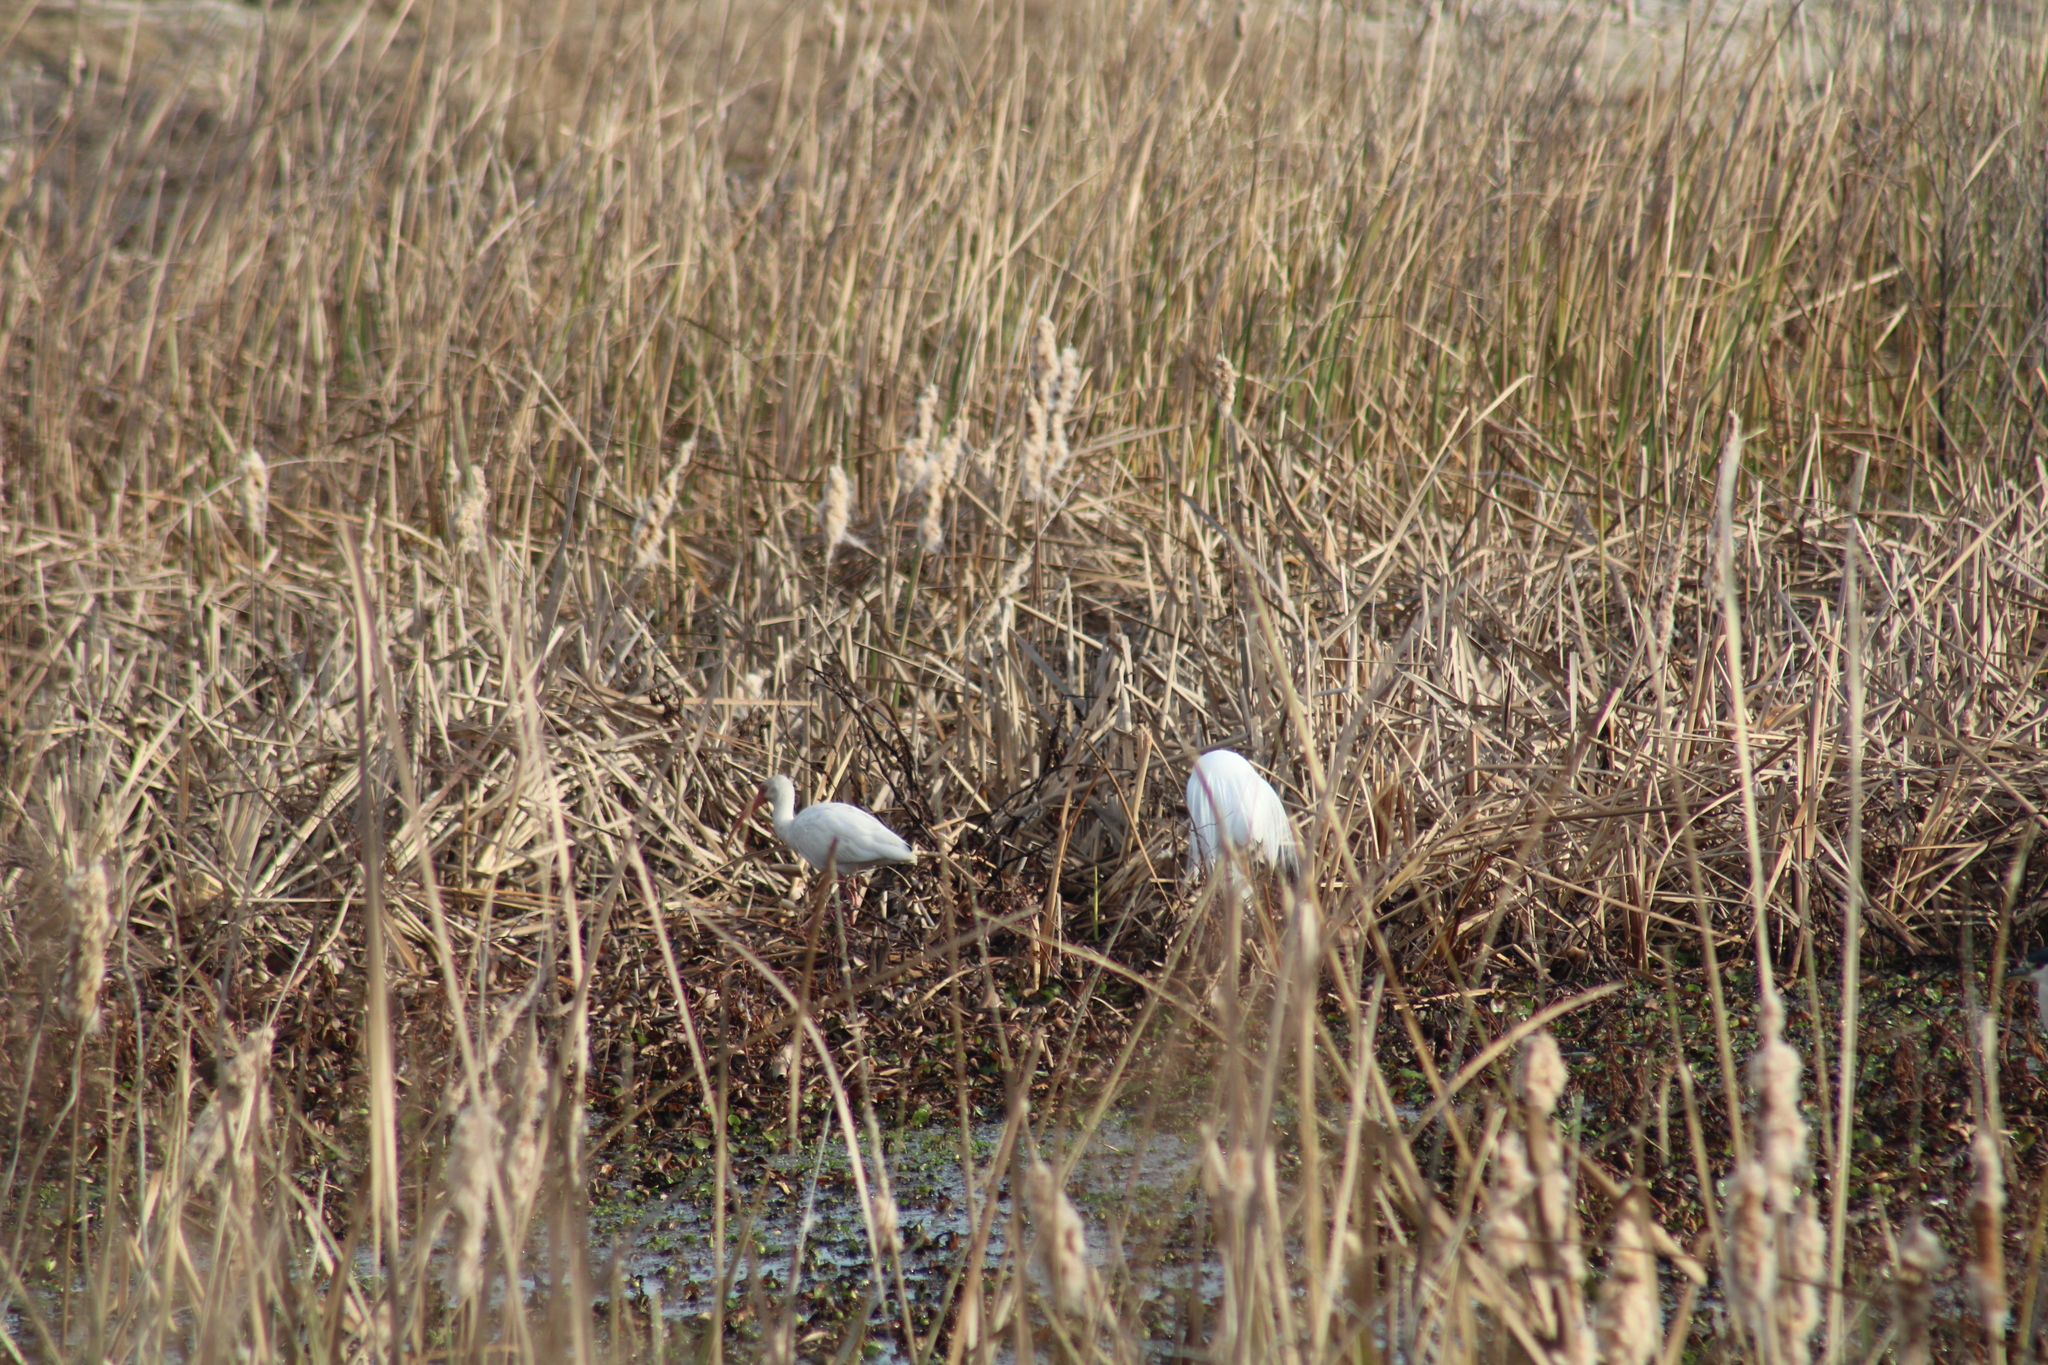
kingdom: Animalia
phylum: Chordata
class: Aves
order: Pelecaniformes
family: Threskiornithidae
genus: Eudocimus
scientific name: Eudocimus albus
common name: White ibis
